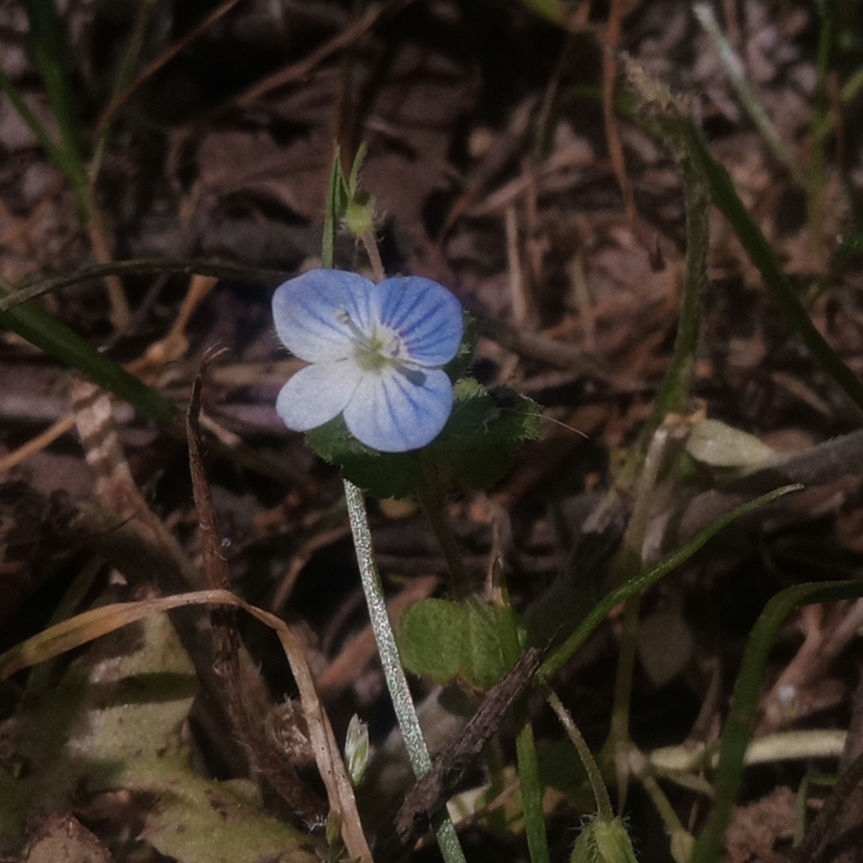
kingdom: Plantae
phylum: Tracheophyta
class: Magnoliopsida
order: Lamiales
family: Plantaginaceae
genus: Veronica
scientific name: Veronica persica
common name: Common field-speedwell
